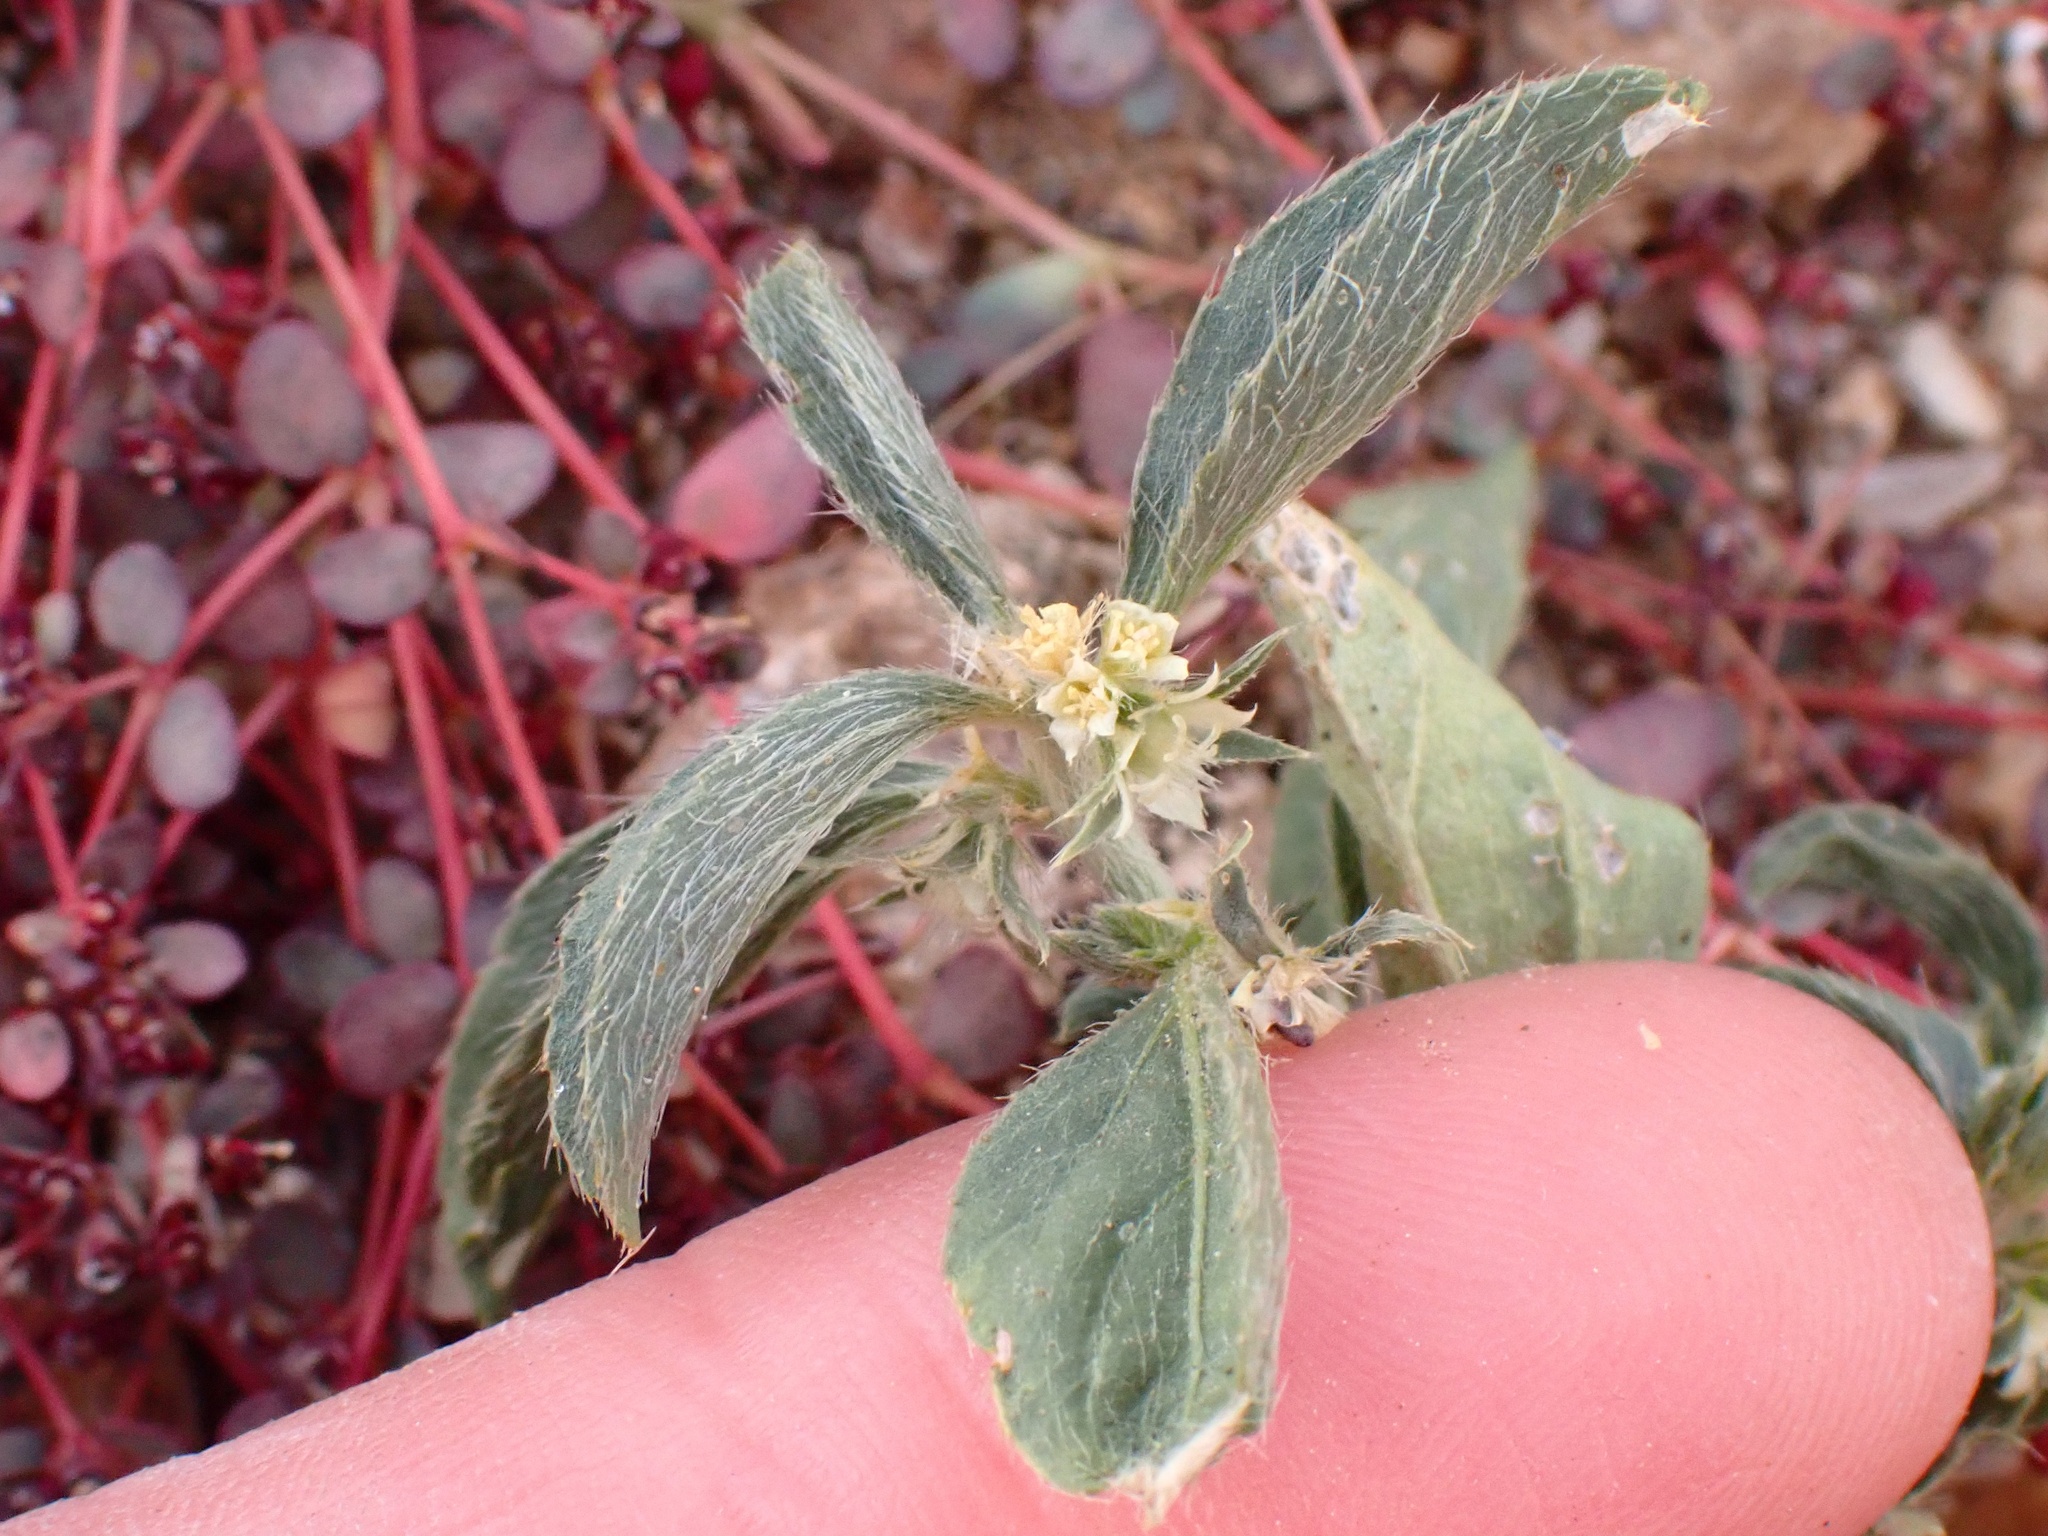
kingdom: Plantae
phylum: Tracheophyta
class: Magnoliopsida
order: Malpighiales
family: Euphorbiaceae
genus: Ditaxis
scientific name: Ditaxis serrata
